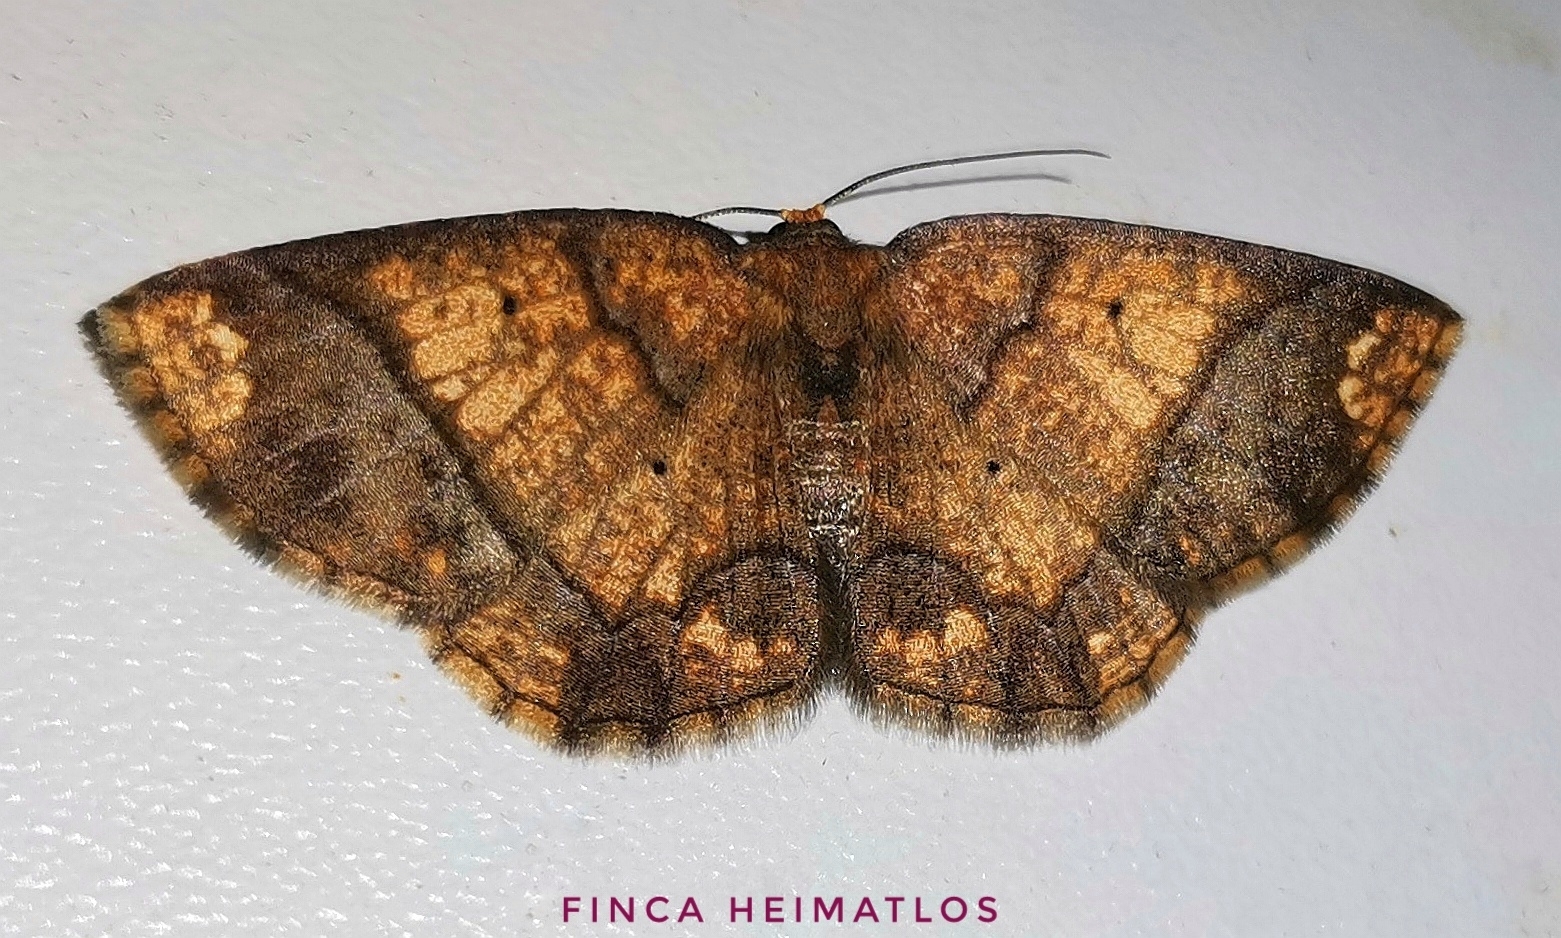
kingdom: Animalia
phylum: Arthropoda
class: Insecta
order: Lepidoptera
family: Geometridae
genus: Melinodes
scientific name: Melinodes cuprina
